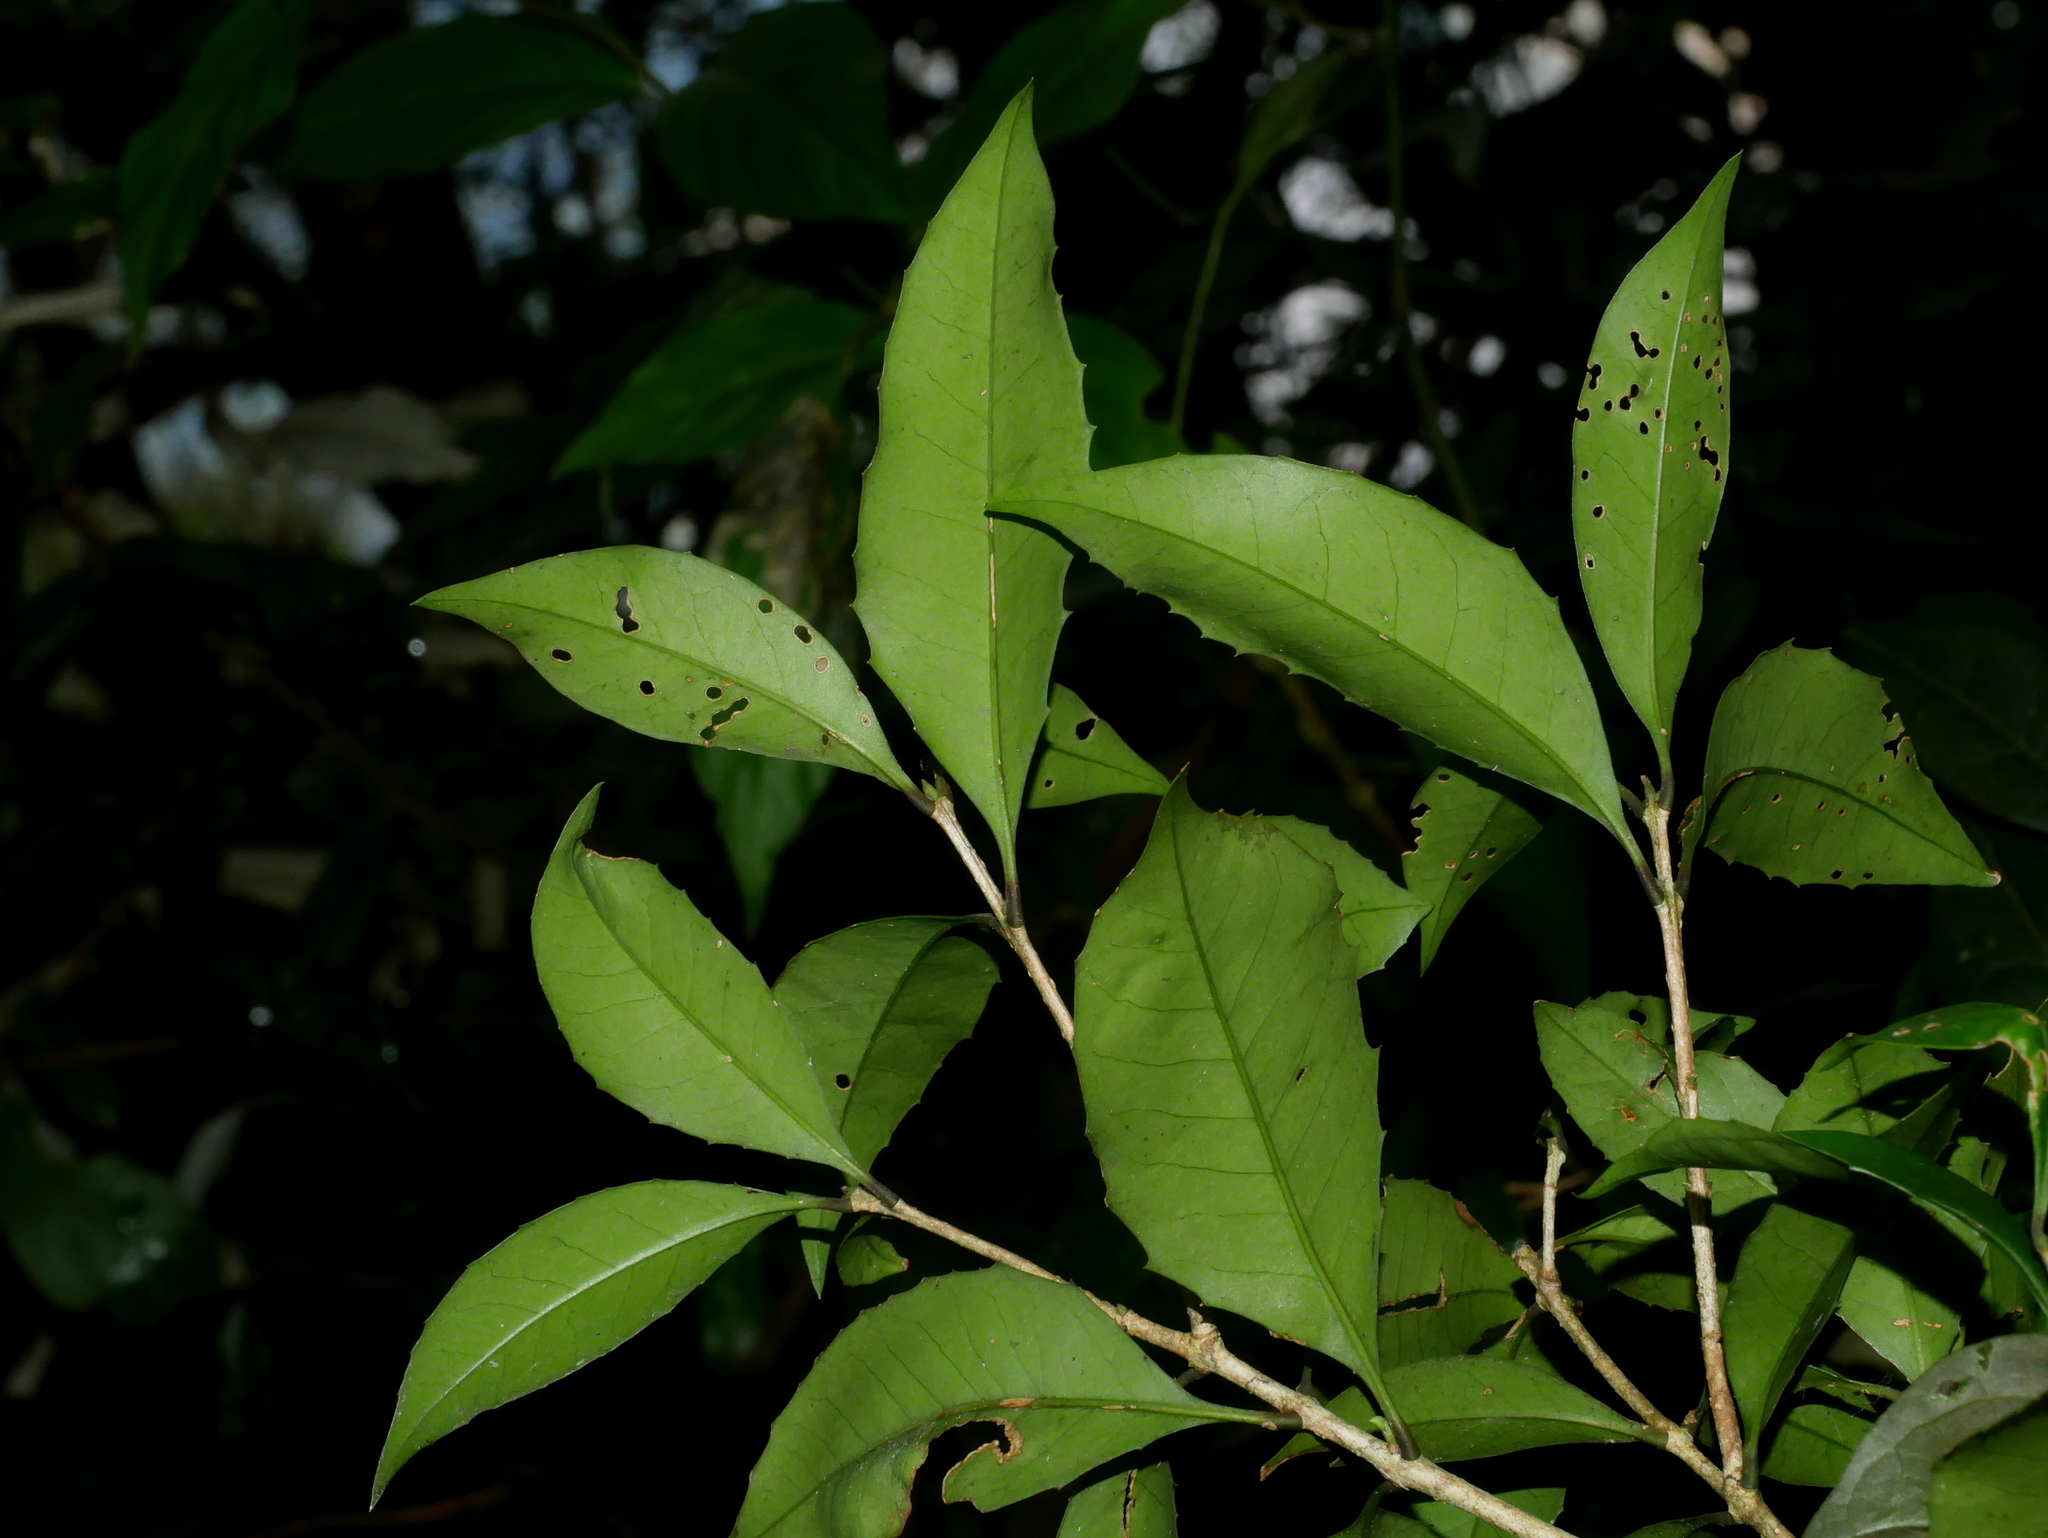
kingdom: Plantae
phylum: Tracheophyta
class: Magnoliopsida
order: Lamiales
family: Oleaceae
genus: Osmanthus
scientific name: Osmanthus enervius
